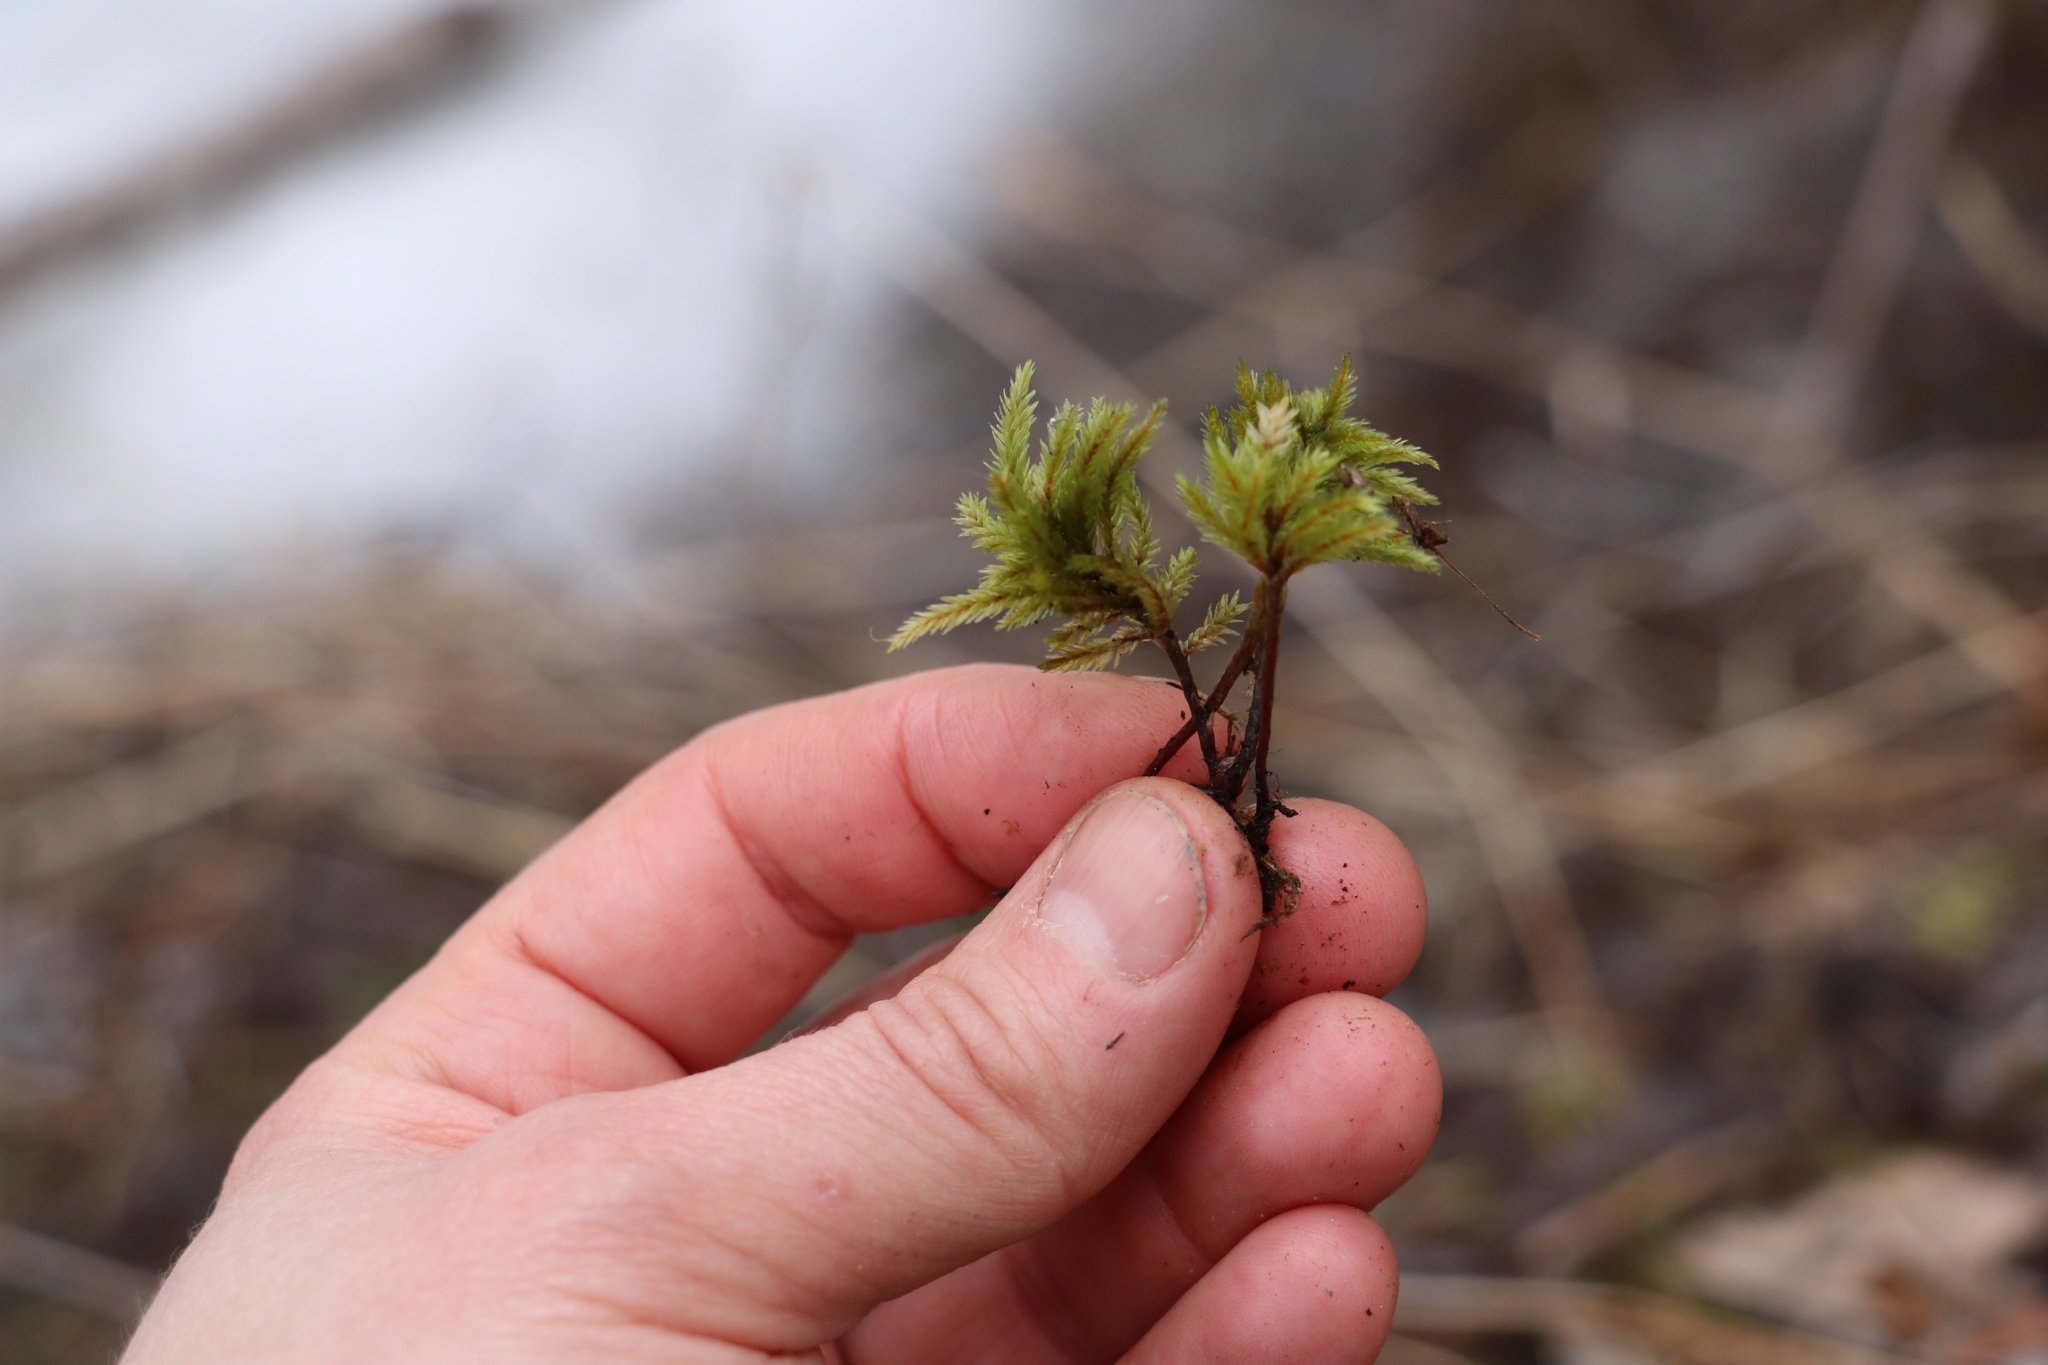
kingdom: Plantae
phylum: Bryophyta
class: Bryopsida
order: Hypnales
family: Climaciaceae
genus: Climacium
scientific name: Climacium dendroides
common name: Northern tree moss
